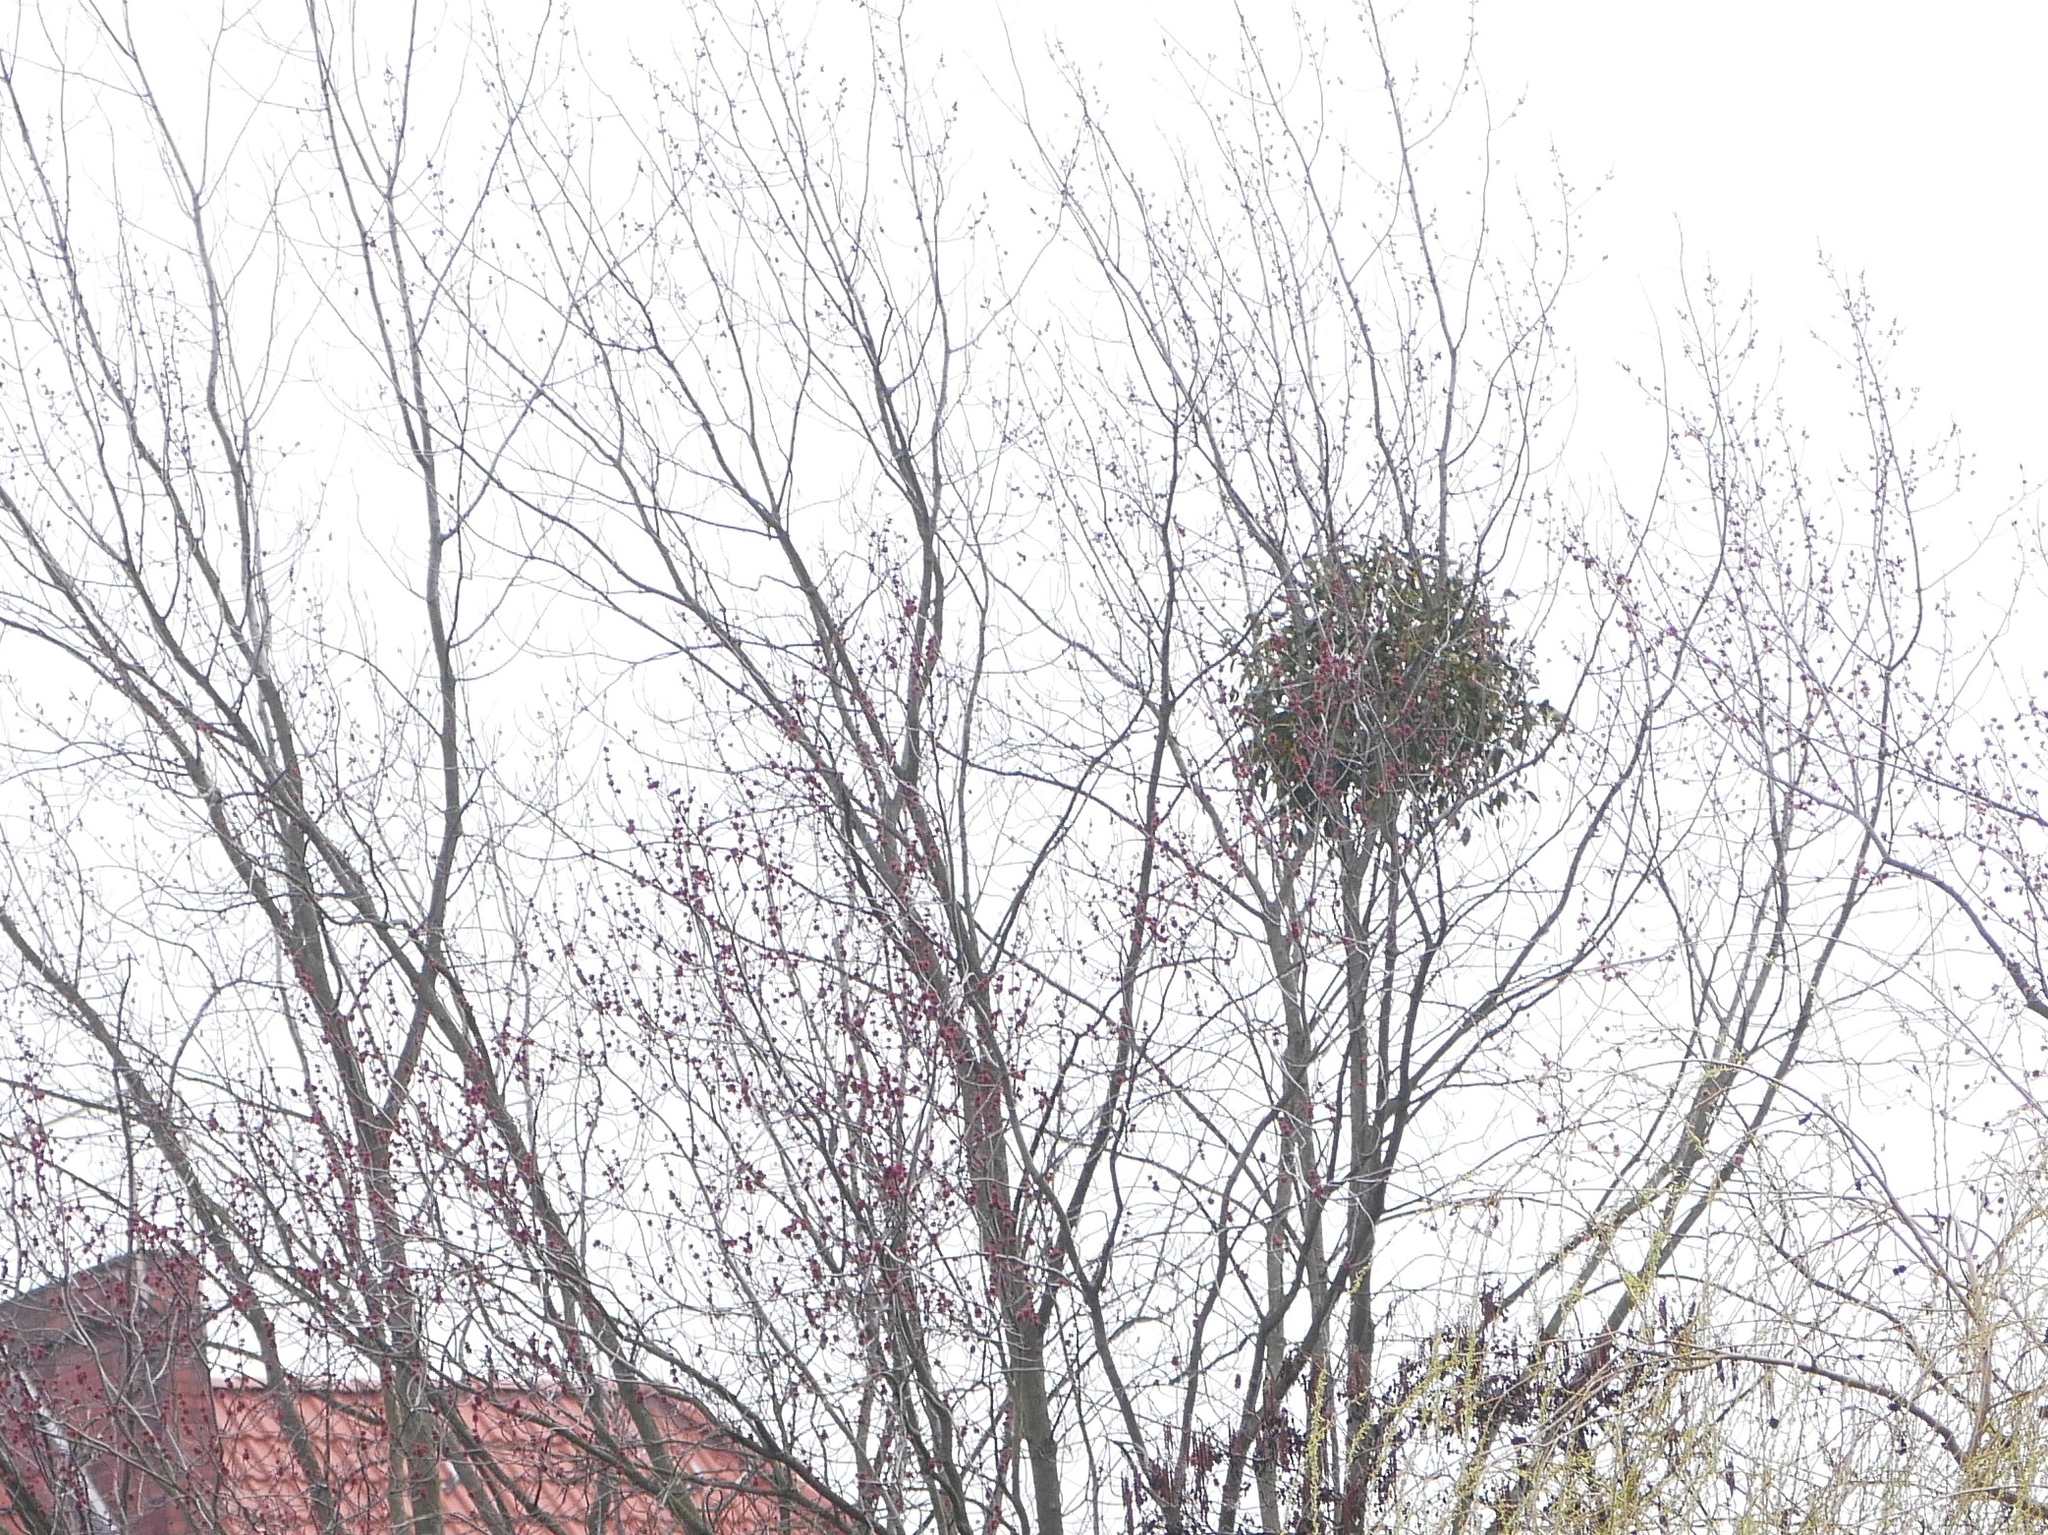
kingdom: Plantae
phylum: Tracheophyta
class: Magnoliopsida
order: Santalales
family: Viscaceae
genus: Viscum
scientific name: Viscum album
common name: Mistletoe
